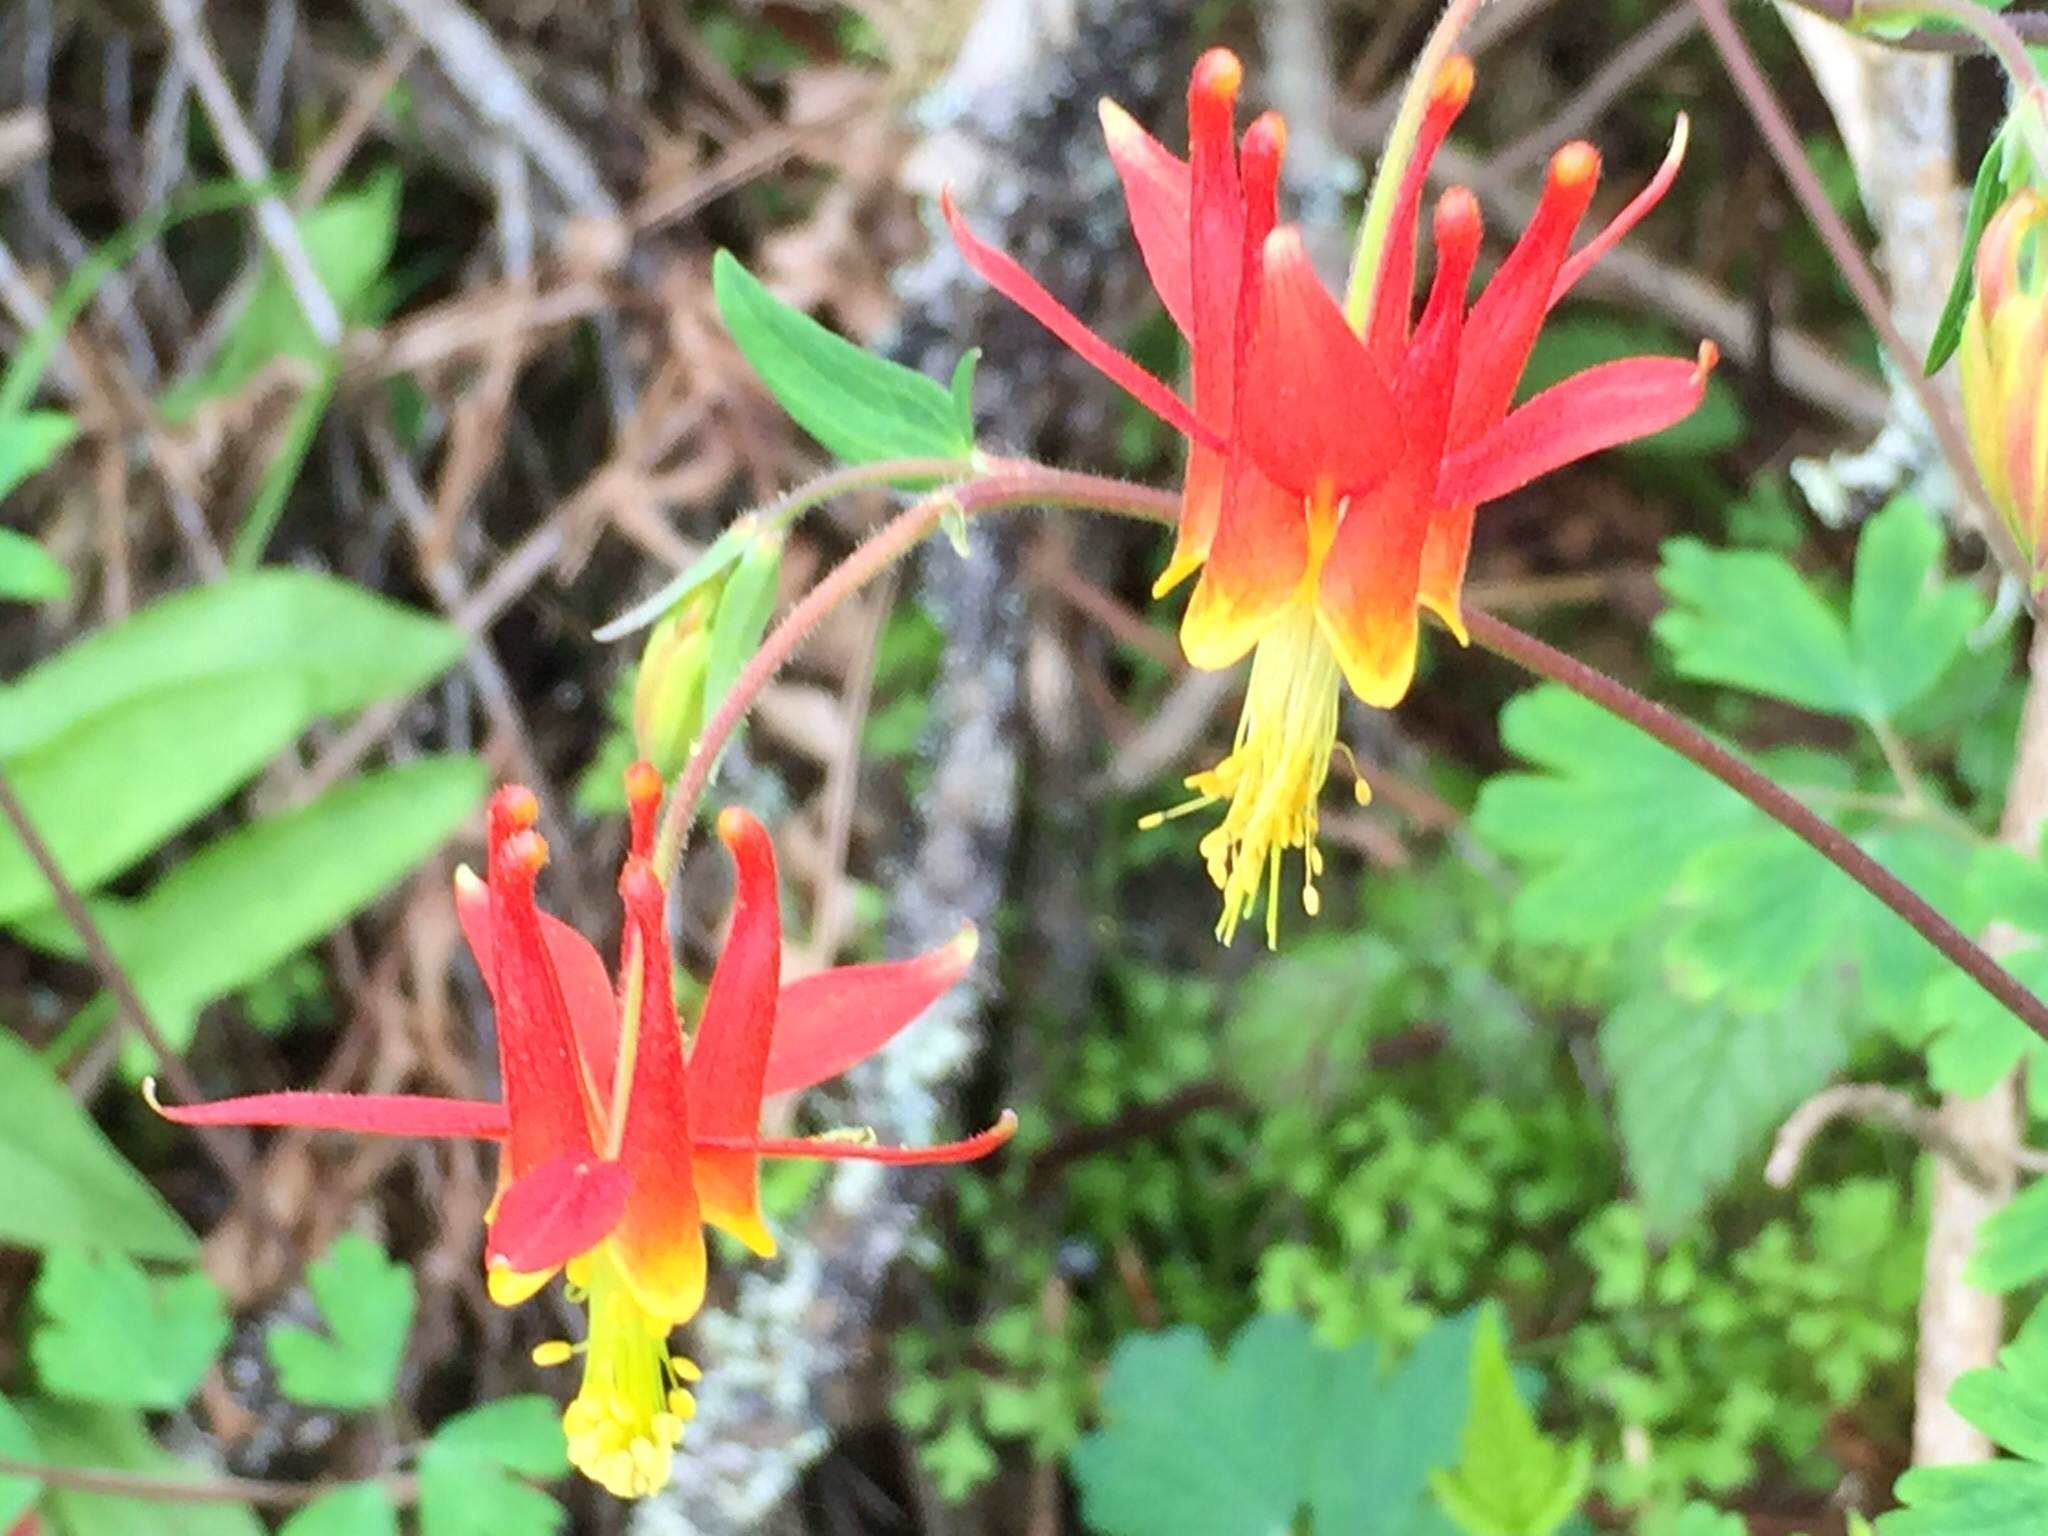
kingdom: Plantae
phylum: Tracheophyta
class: Magnoliopsida
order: Ranunculales
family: Ranunculaceae
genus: Aquilegia
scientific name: Aquilegia formosa
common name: Sitka columbine
